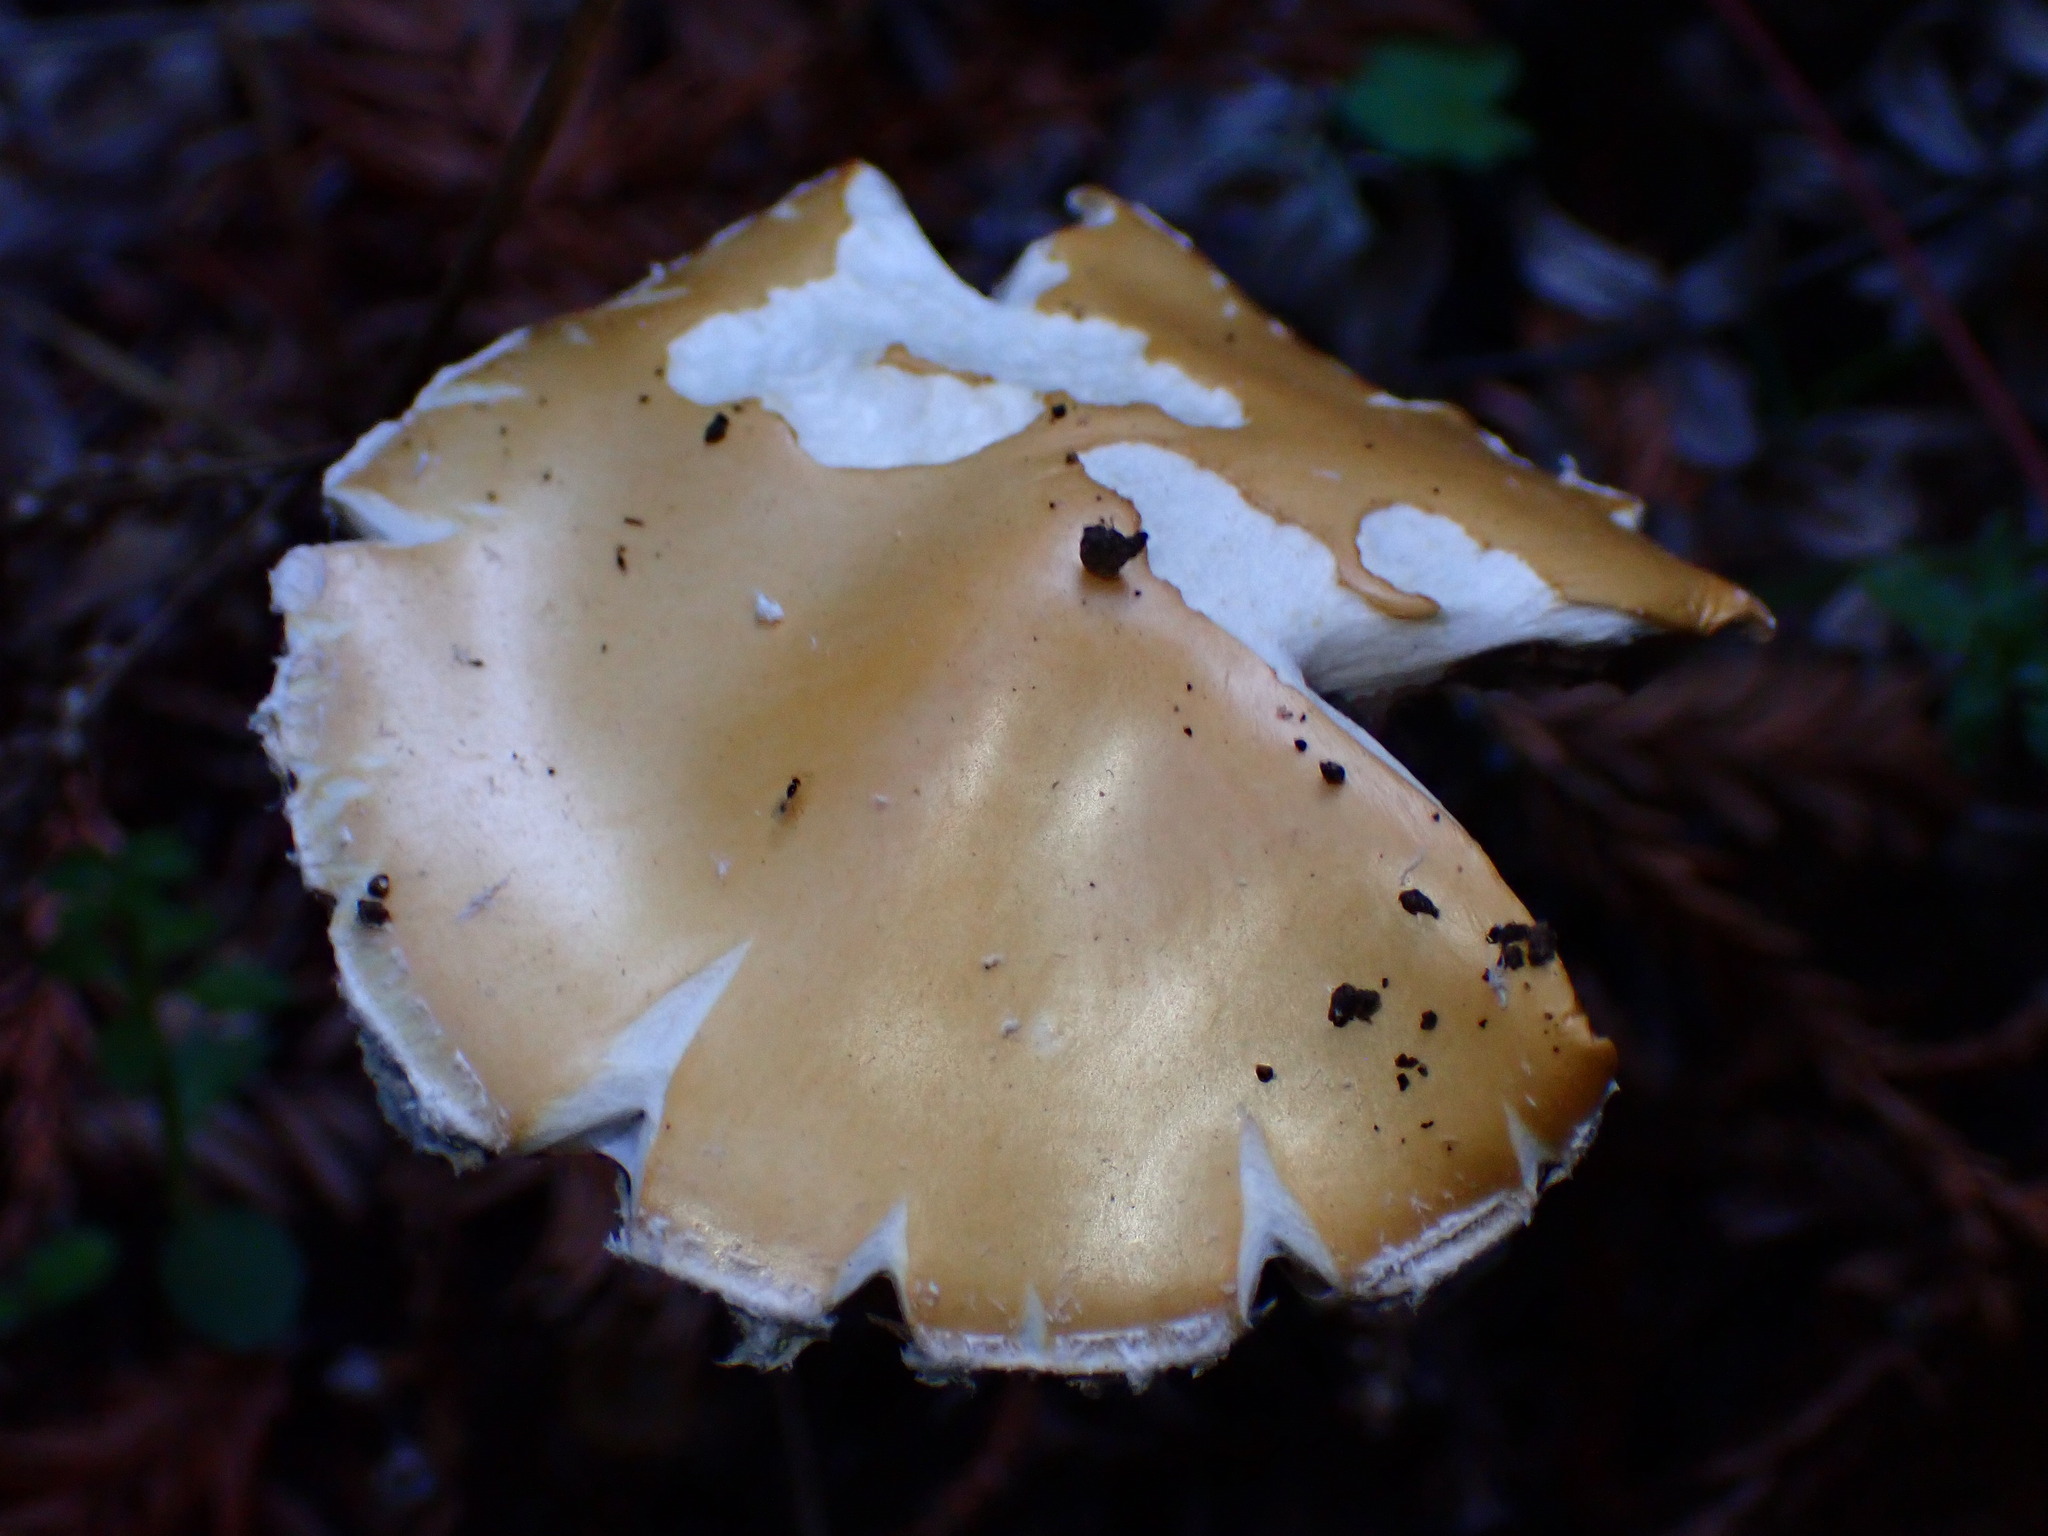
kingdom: Fungi
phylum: Basidiomycota
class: Agaricomycetes
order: Agaricales
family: Strophariaceae
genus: Stropharia
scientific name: Stropharia ambigua
